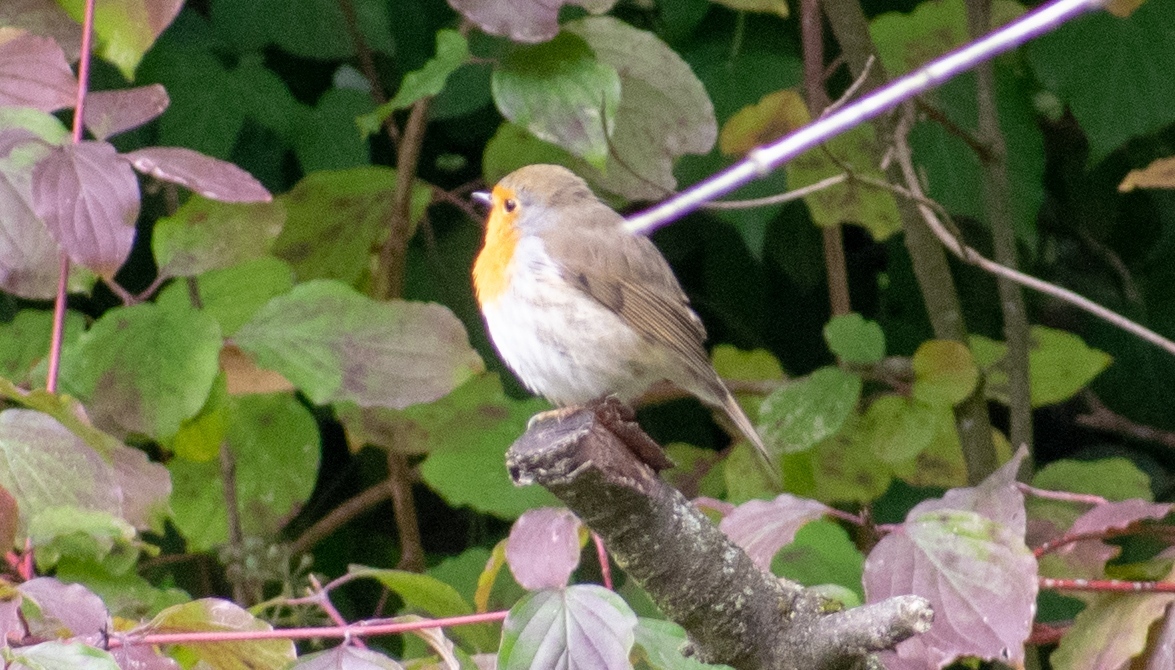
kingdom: Animalia
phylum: Chordata
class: Aves
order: Passeriformes
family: Muscicapidae
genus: Erithacus
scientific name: Erithacus rubecula
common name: European robin
